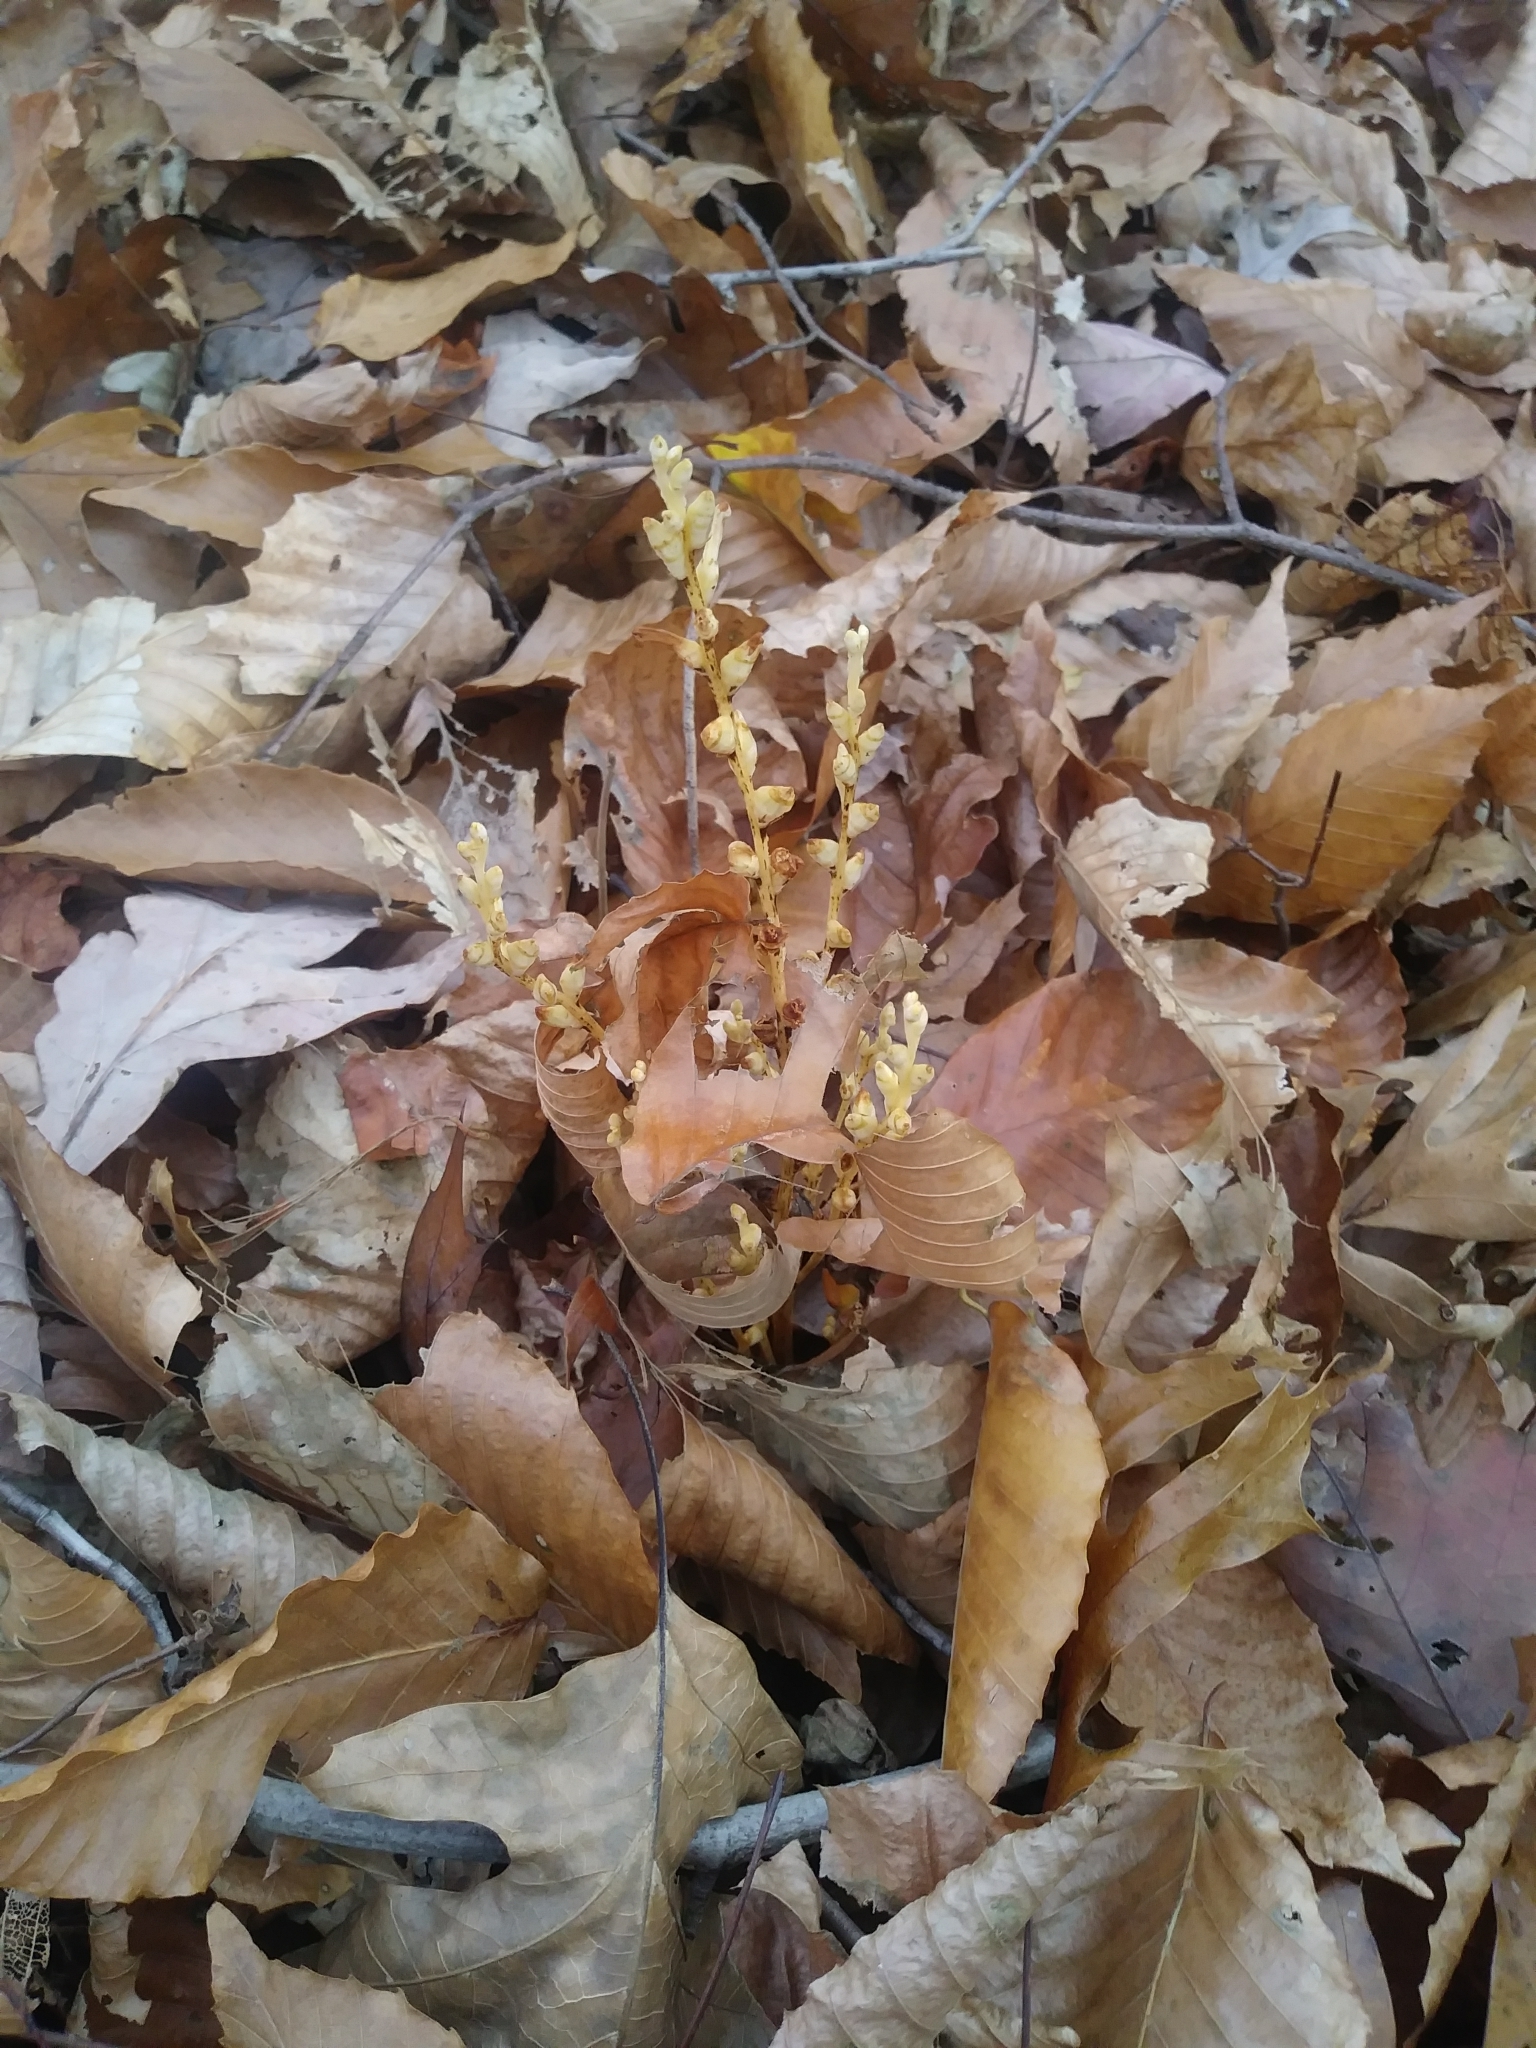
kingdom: Plantae
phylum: Tracheophyta
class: Magnoliopsida
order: Lamiales
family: Orobanchaceae
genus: Epifagus
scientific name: Epifagus virginiana
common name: Beechdrops
